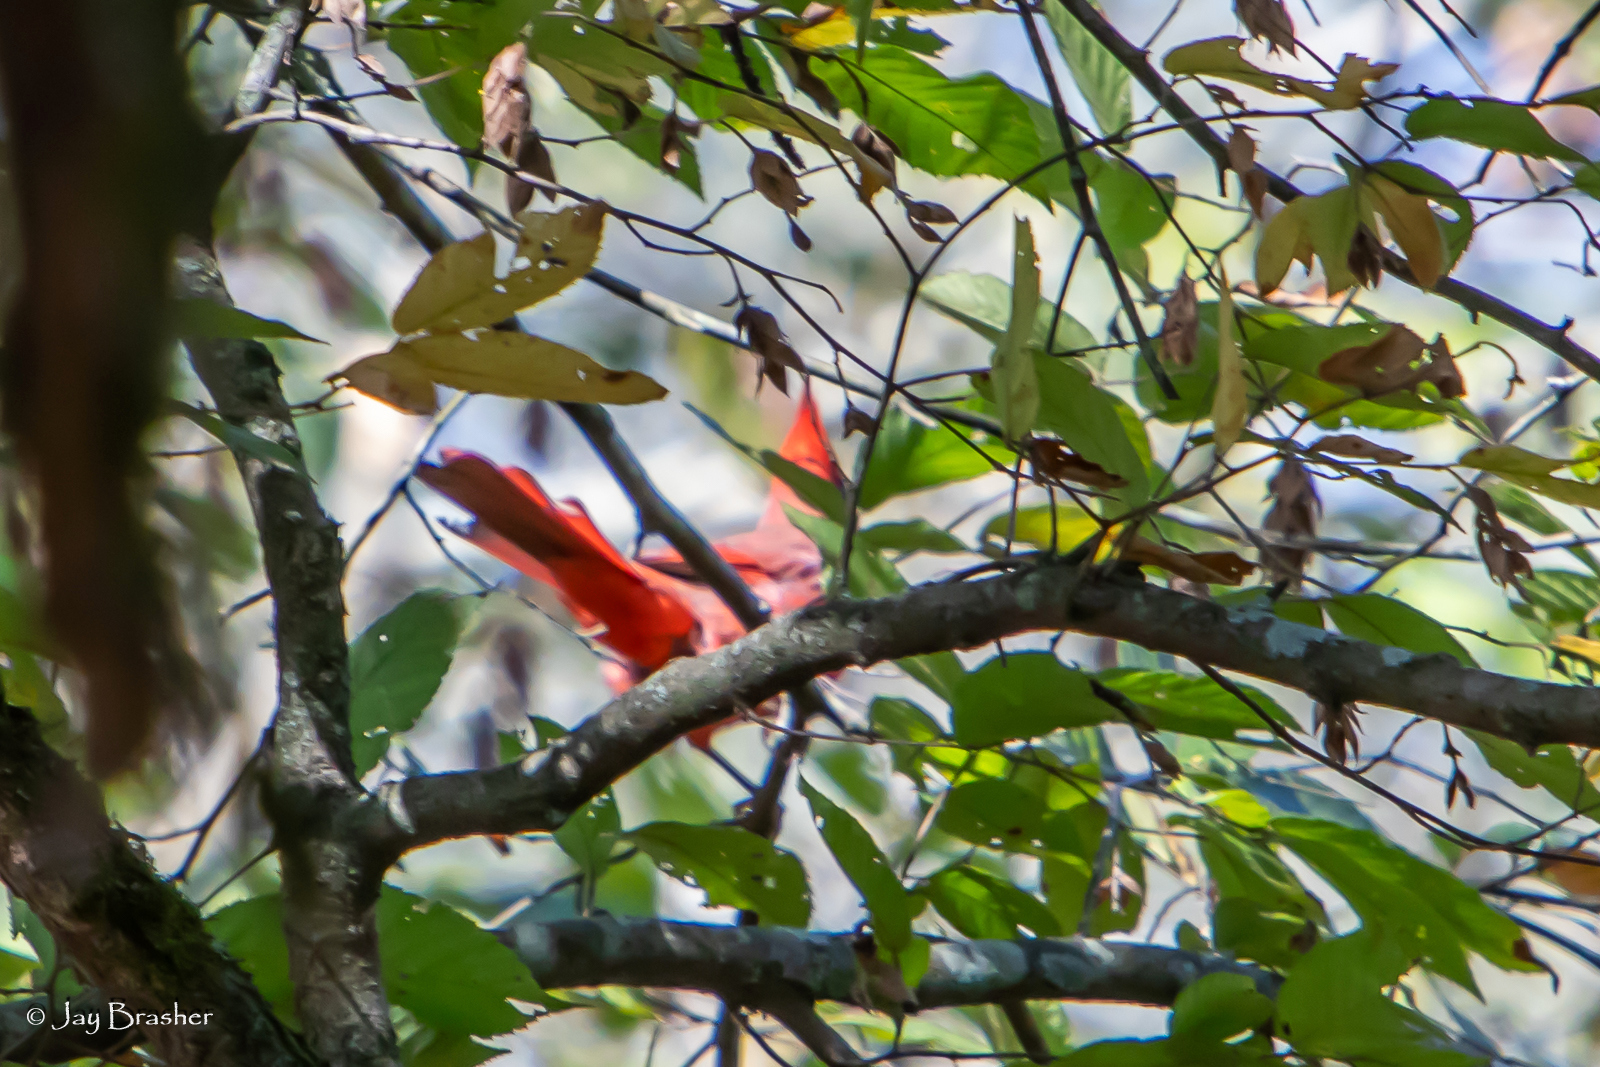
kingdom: Animalia
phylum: Chordata
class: Aves
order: Passeriformes
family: Cardinalidae
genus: Cardinalis
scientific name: Cardinalis cardinalis
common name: Northern cardinal
